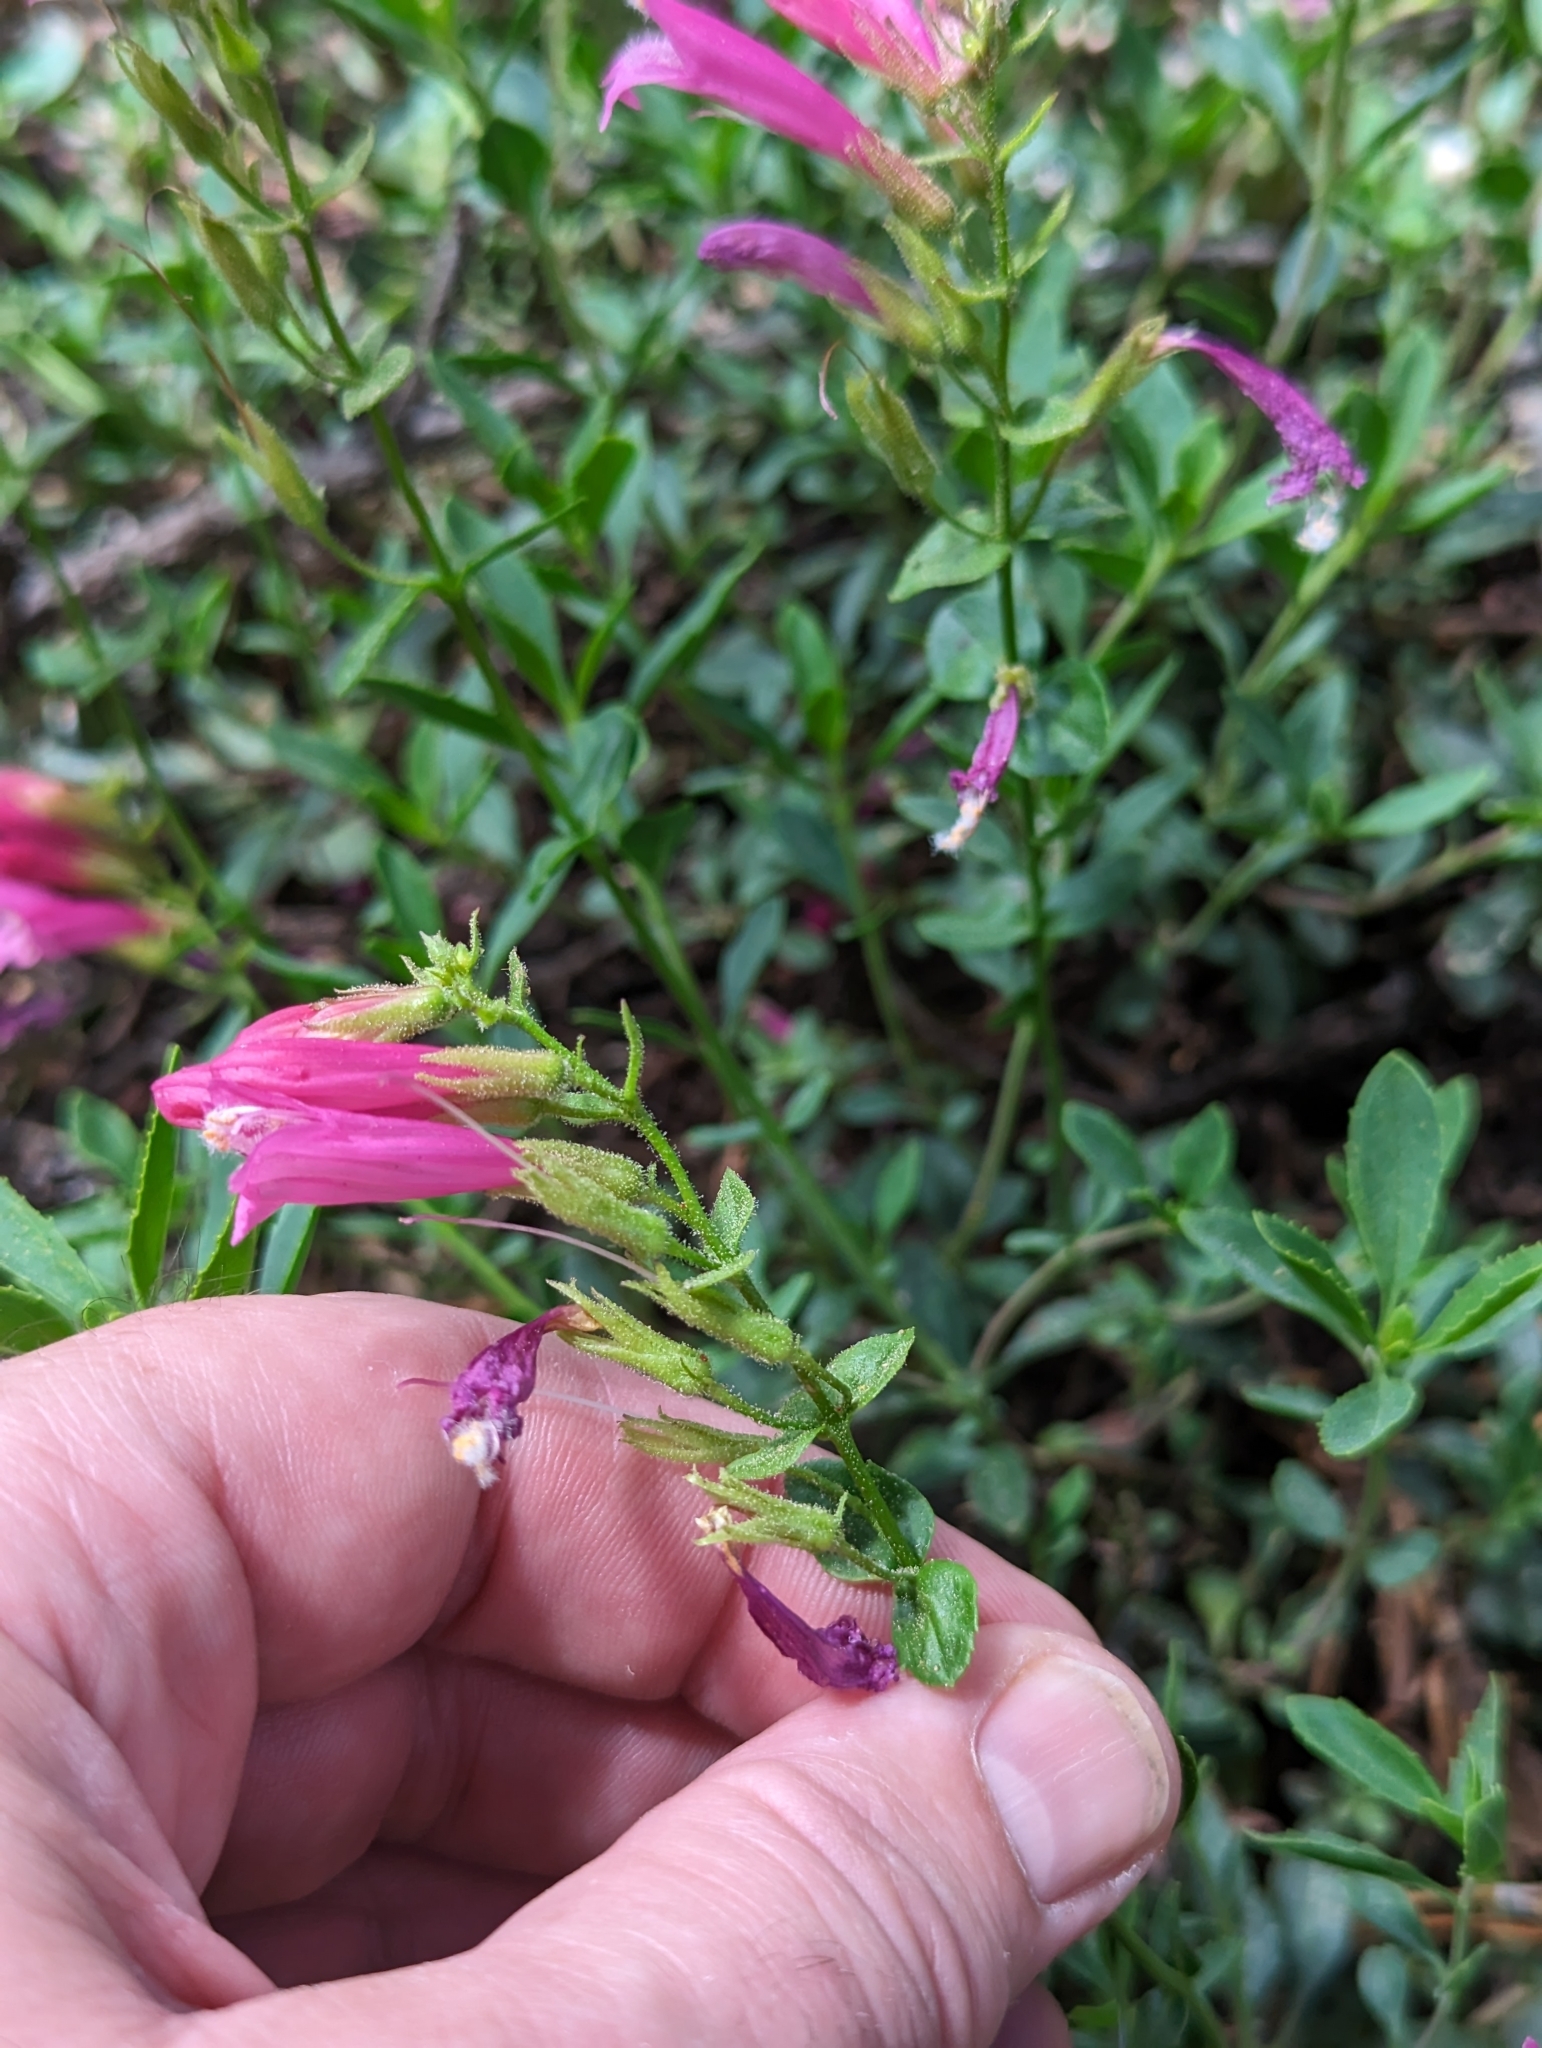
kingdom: Plantae
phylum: Tracheophyta
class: Magnoliopsida
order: Lamiales
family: Plantaginaceae
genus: Penstemon
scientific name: Penstemon newberryi
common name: Mountain-pride
